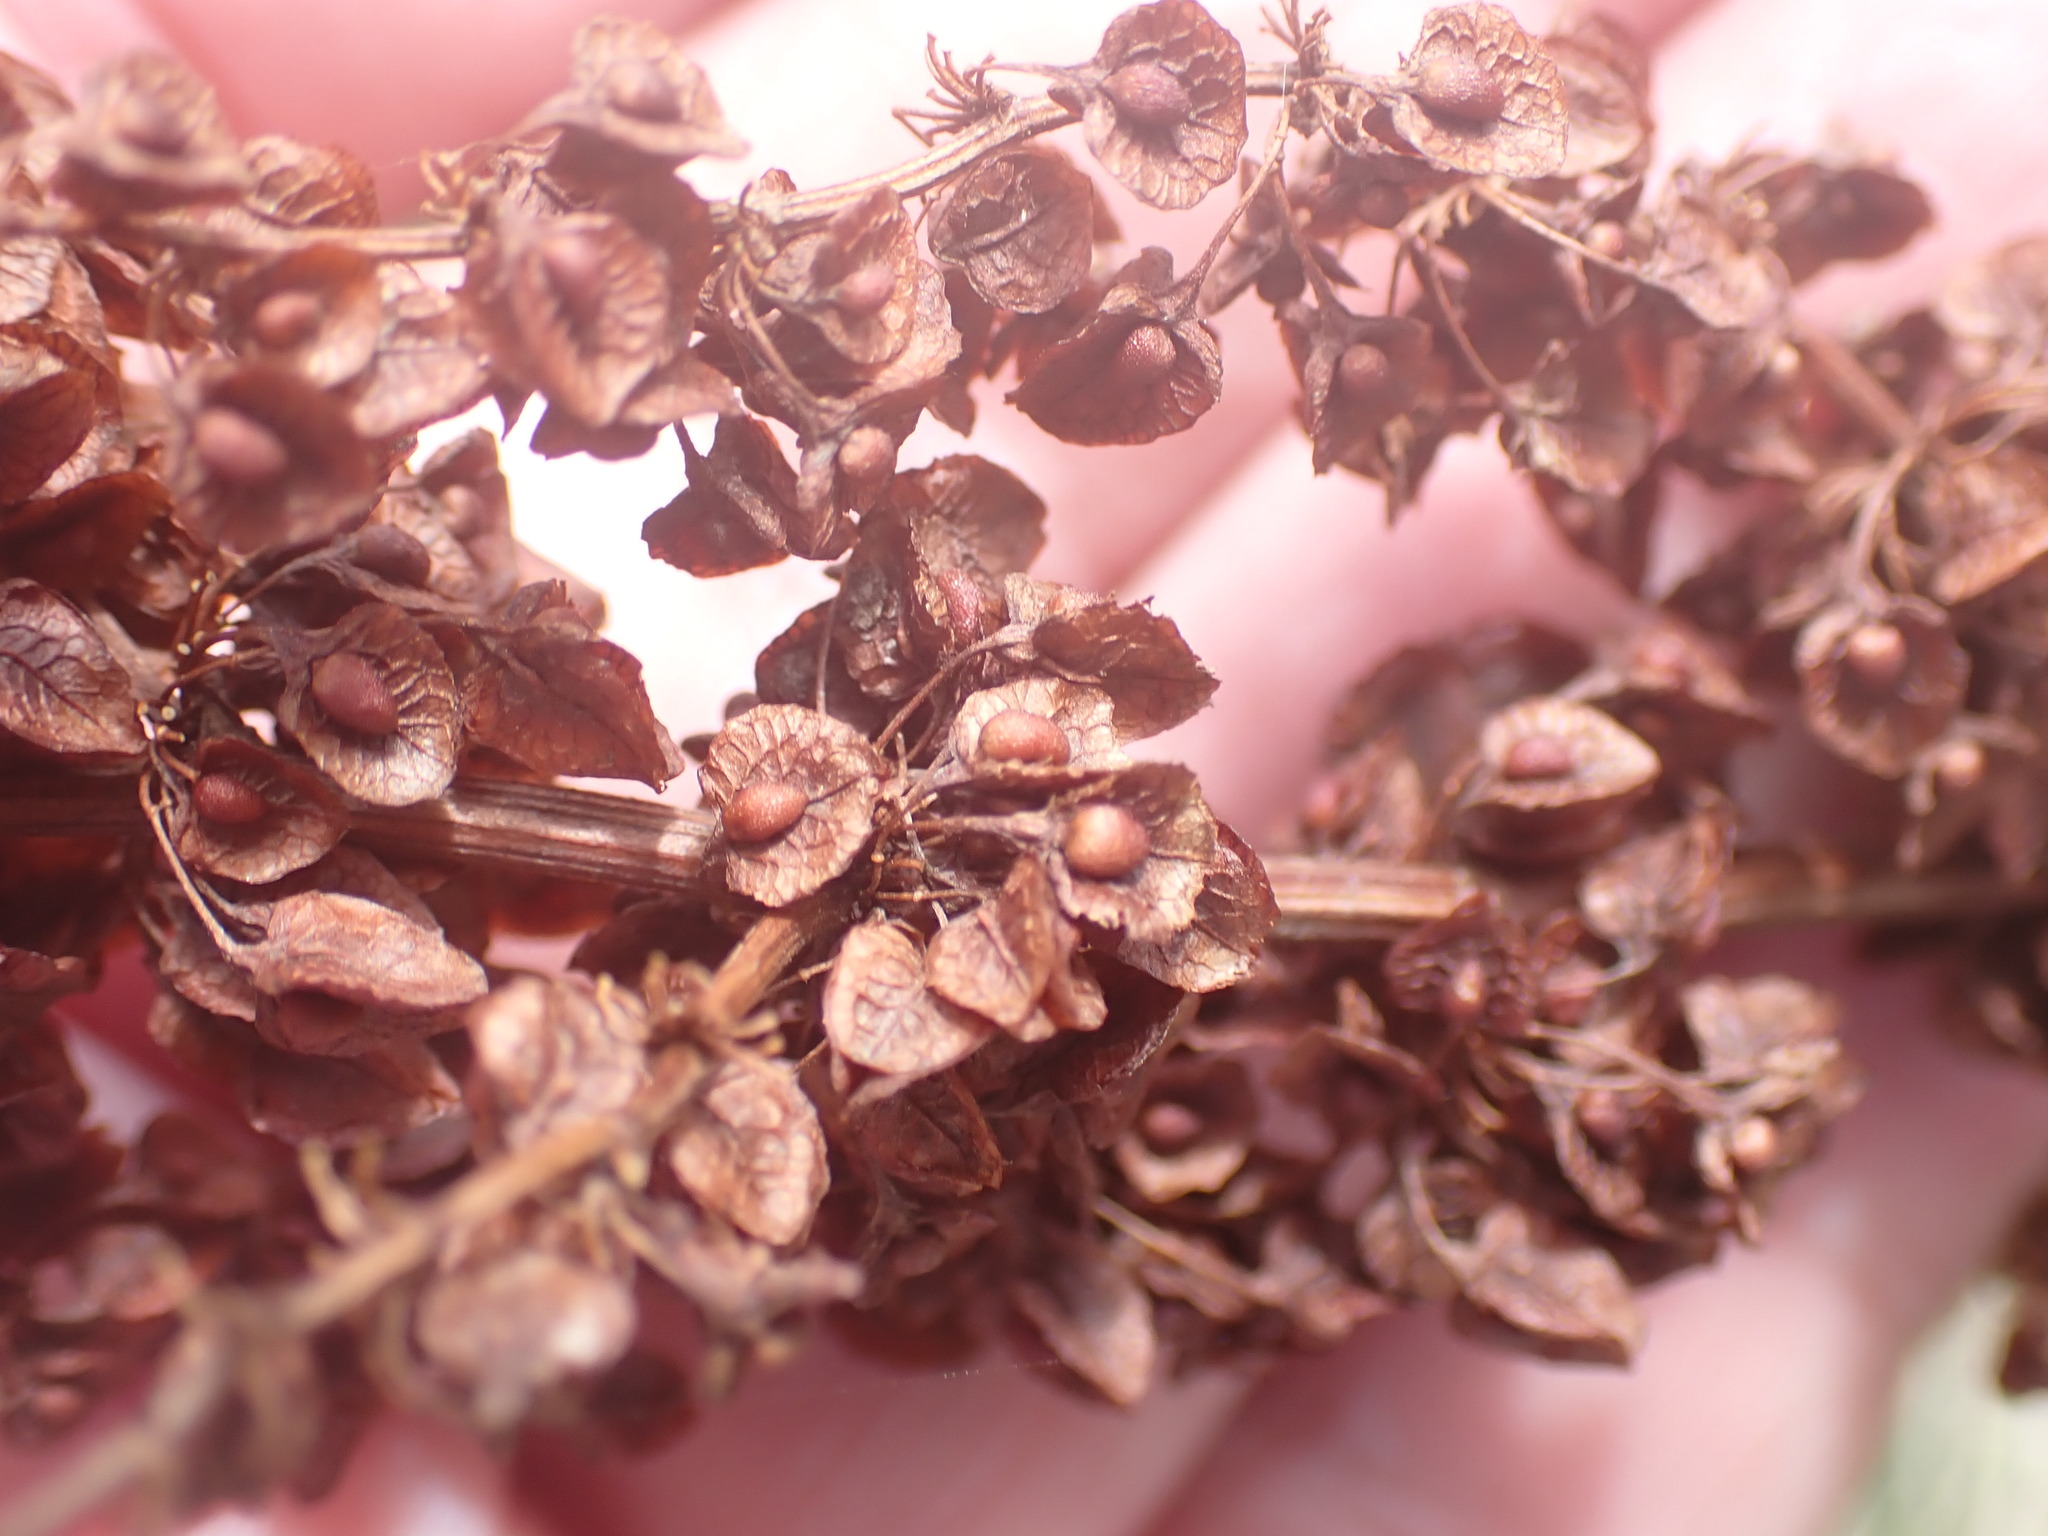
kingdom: Plantae
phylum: Tracheophyta
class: Magnoliopsida
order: Caryophyllales
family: Polygonaceae
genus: Rumex
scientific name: Rumex crispus
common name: Curled dock
